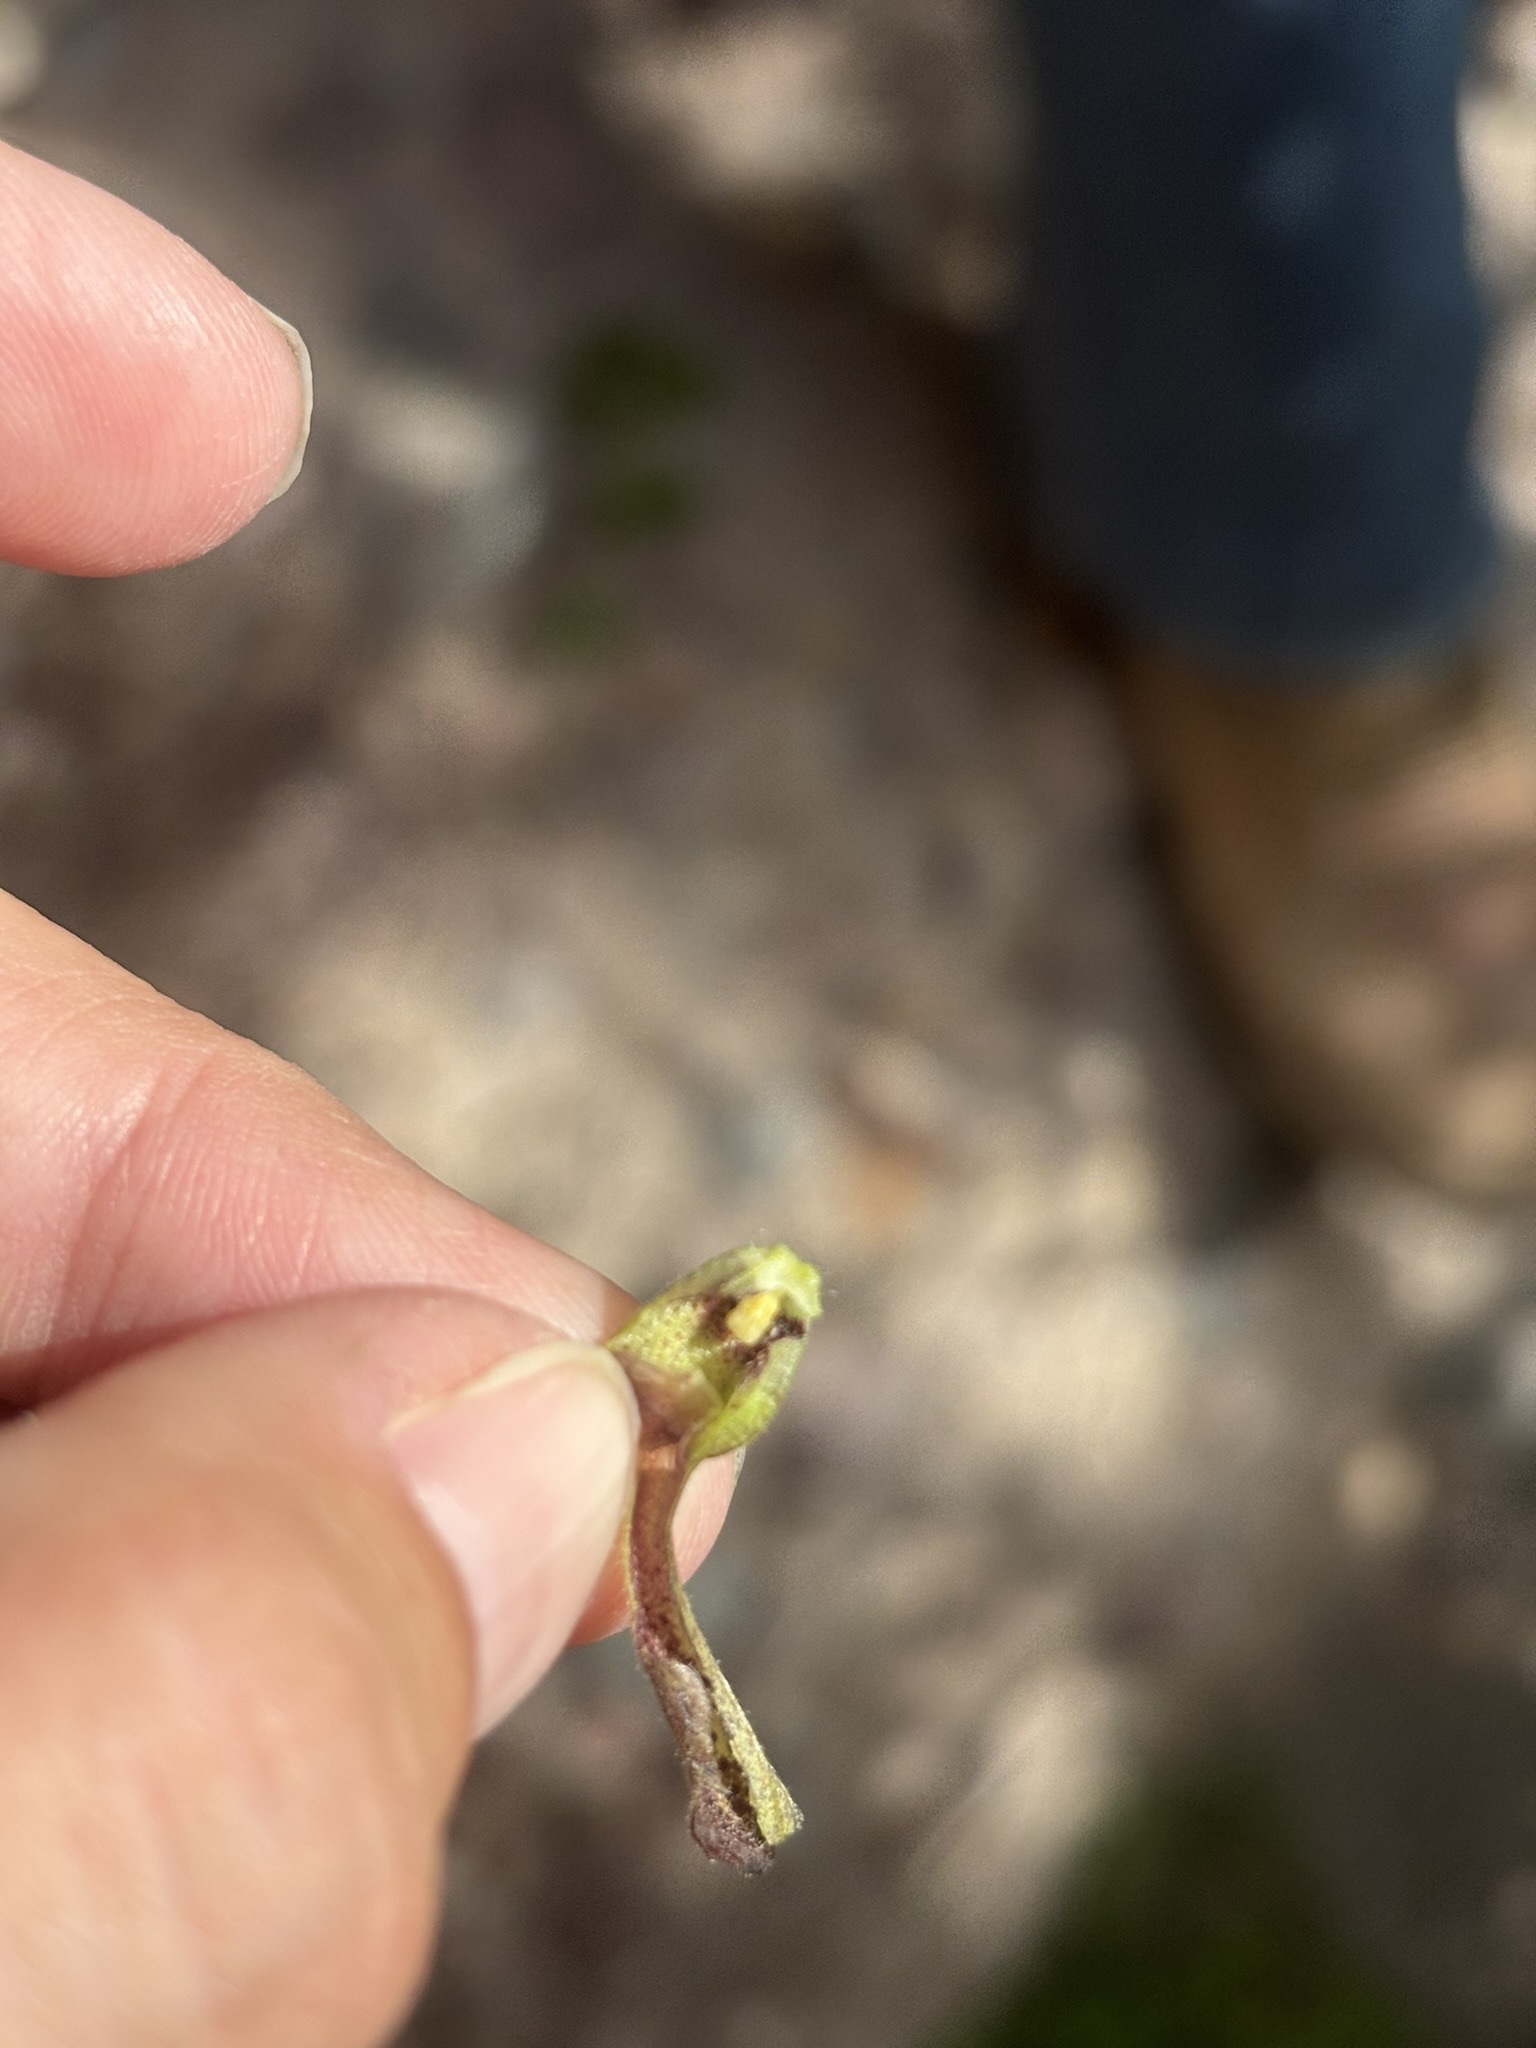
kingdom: Plantae
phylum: Tracheophyta
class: Magnoliopsida
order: Piperales
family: Aristolochiaceae
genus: Aristolochia
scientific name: Aristolochia watsonii
